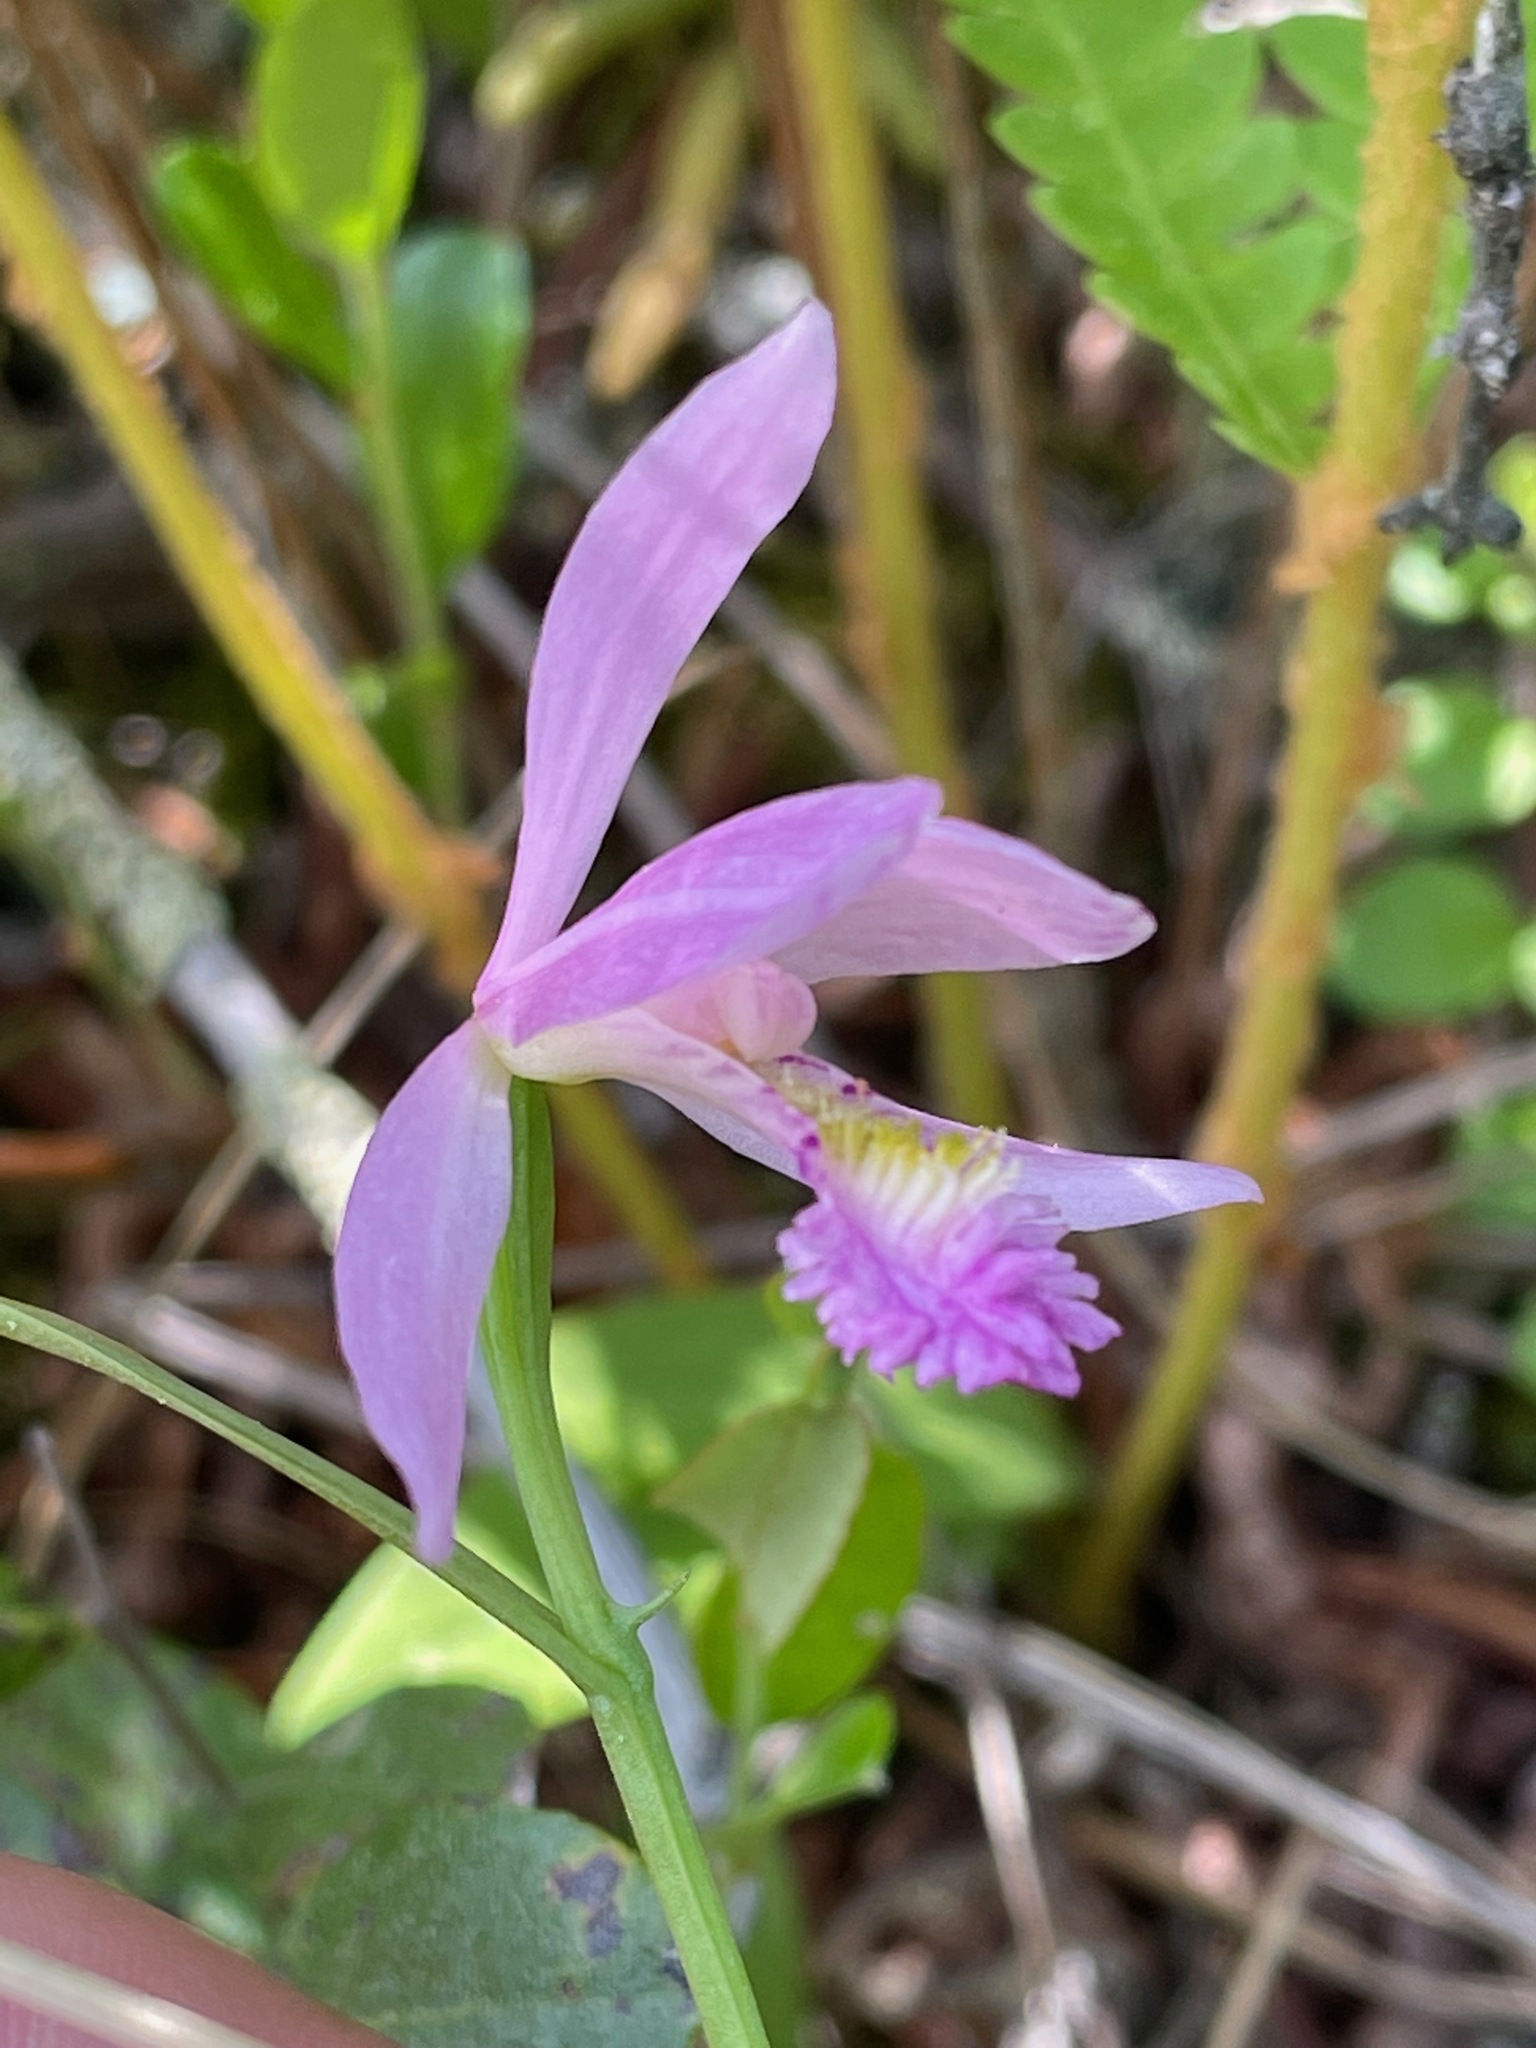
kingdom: Plantae
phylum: Tracheophyta
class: Liliopsida
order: Asparagales
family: Orchidaceae
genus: Pogonia
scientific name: Pogonia ophioglossoides
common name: Rose pogonia
